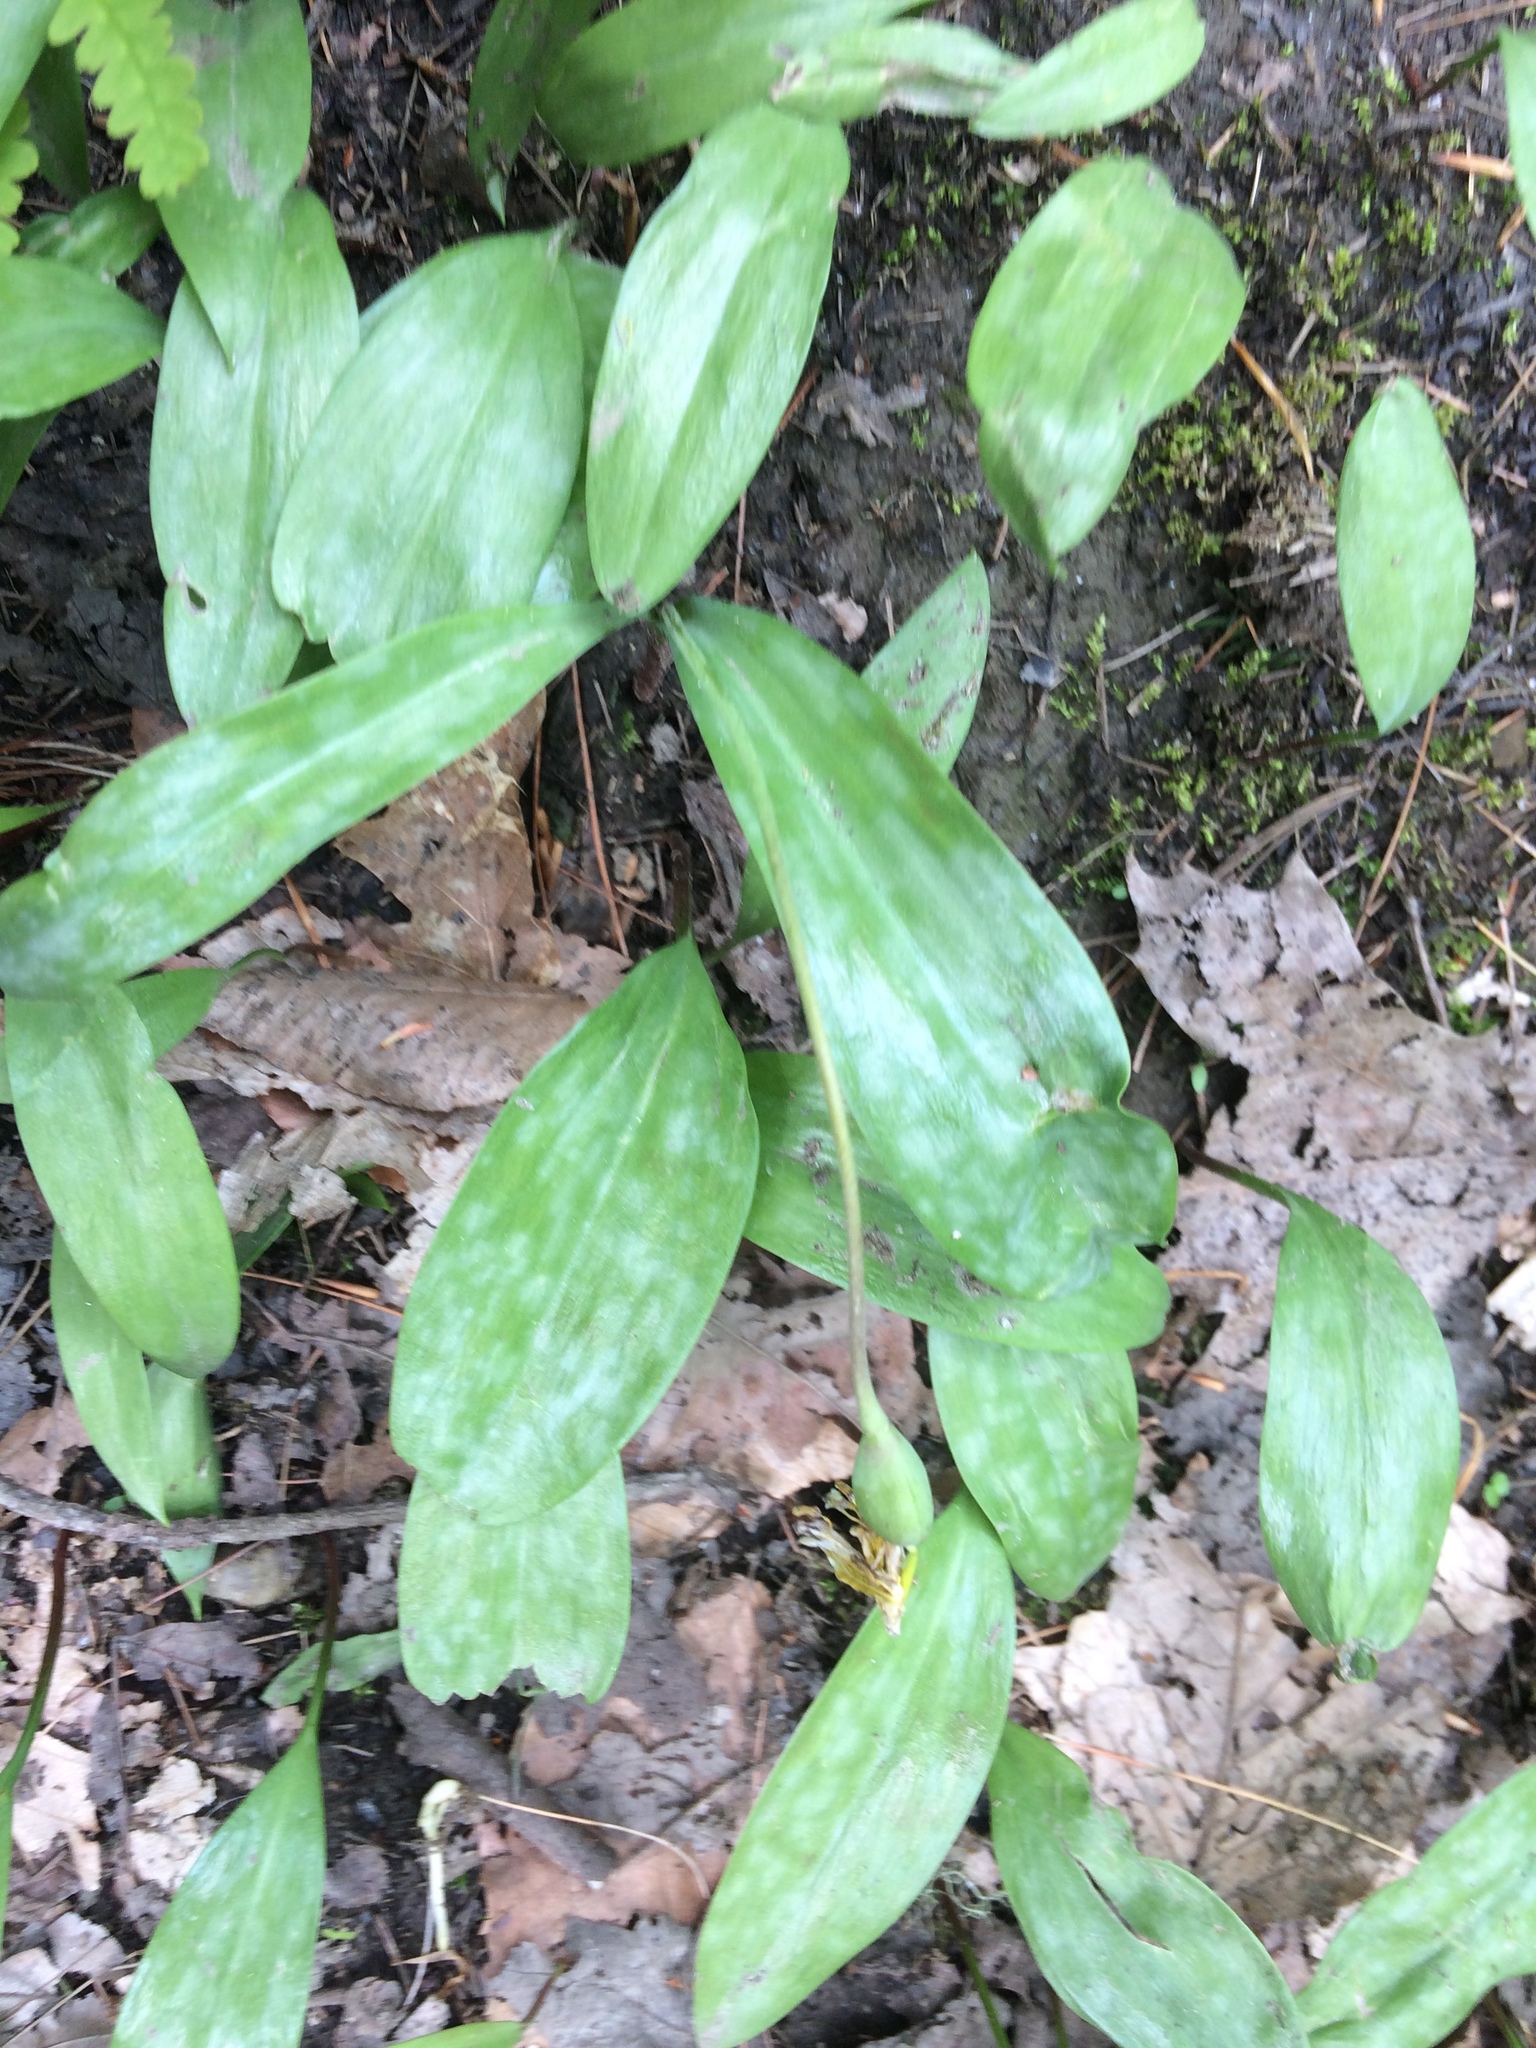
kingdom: Plantae
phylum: Tracheophyta
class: Liliopsida
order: Liliales
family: Liliaceae
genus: Erythronium
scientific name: Erythronium americanum
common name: Yellow adder's-tongue
